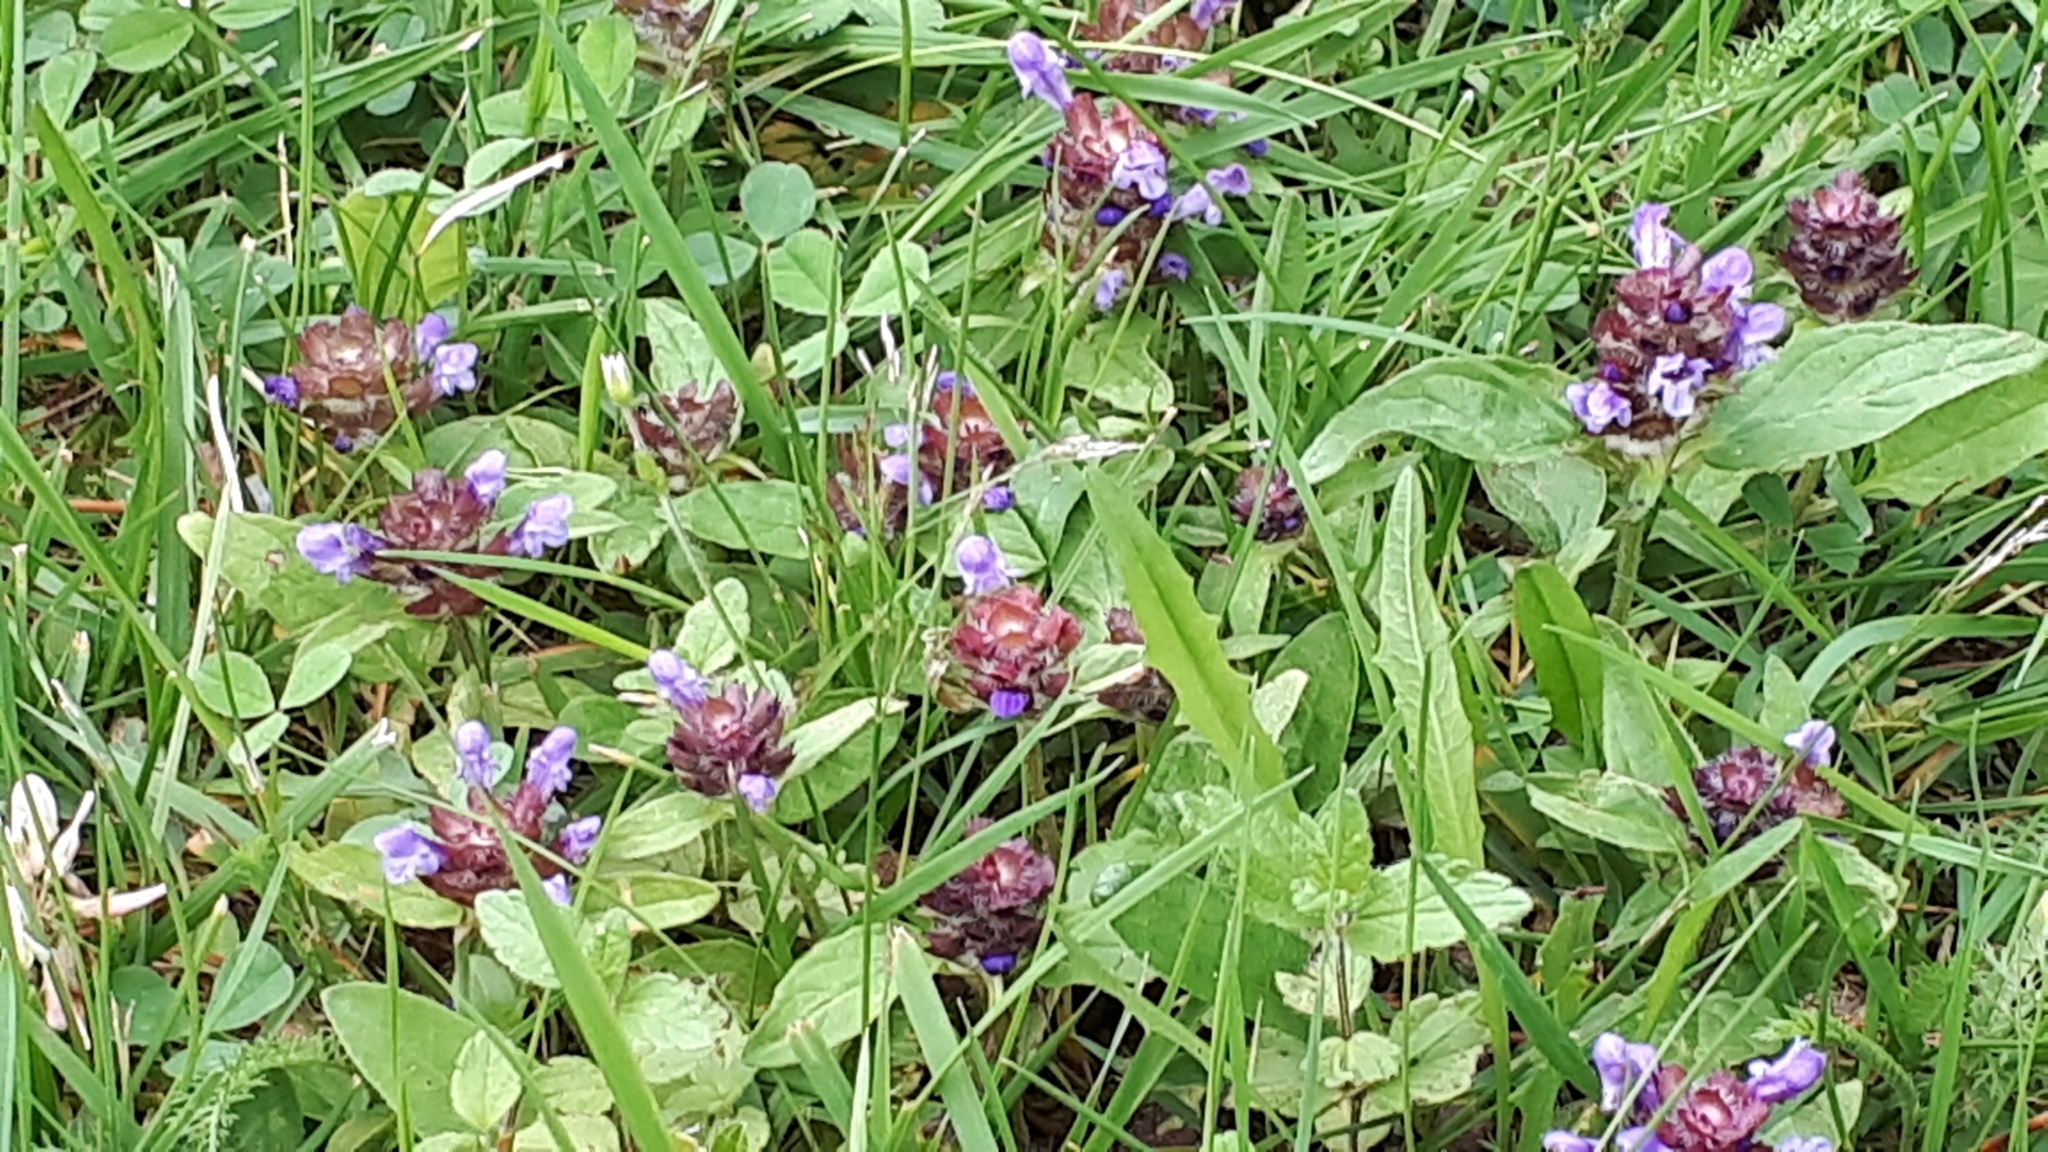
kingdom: Plantae
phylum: Tracheophyta
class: Magnoliopsida
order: Lamiales
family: Lamiaceae
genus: Prunella
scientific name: Prunella vulgaris
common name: Heal-all
